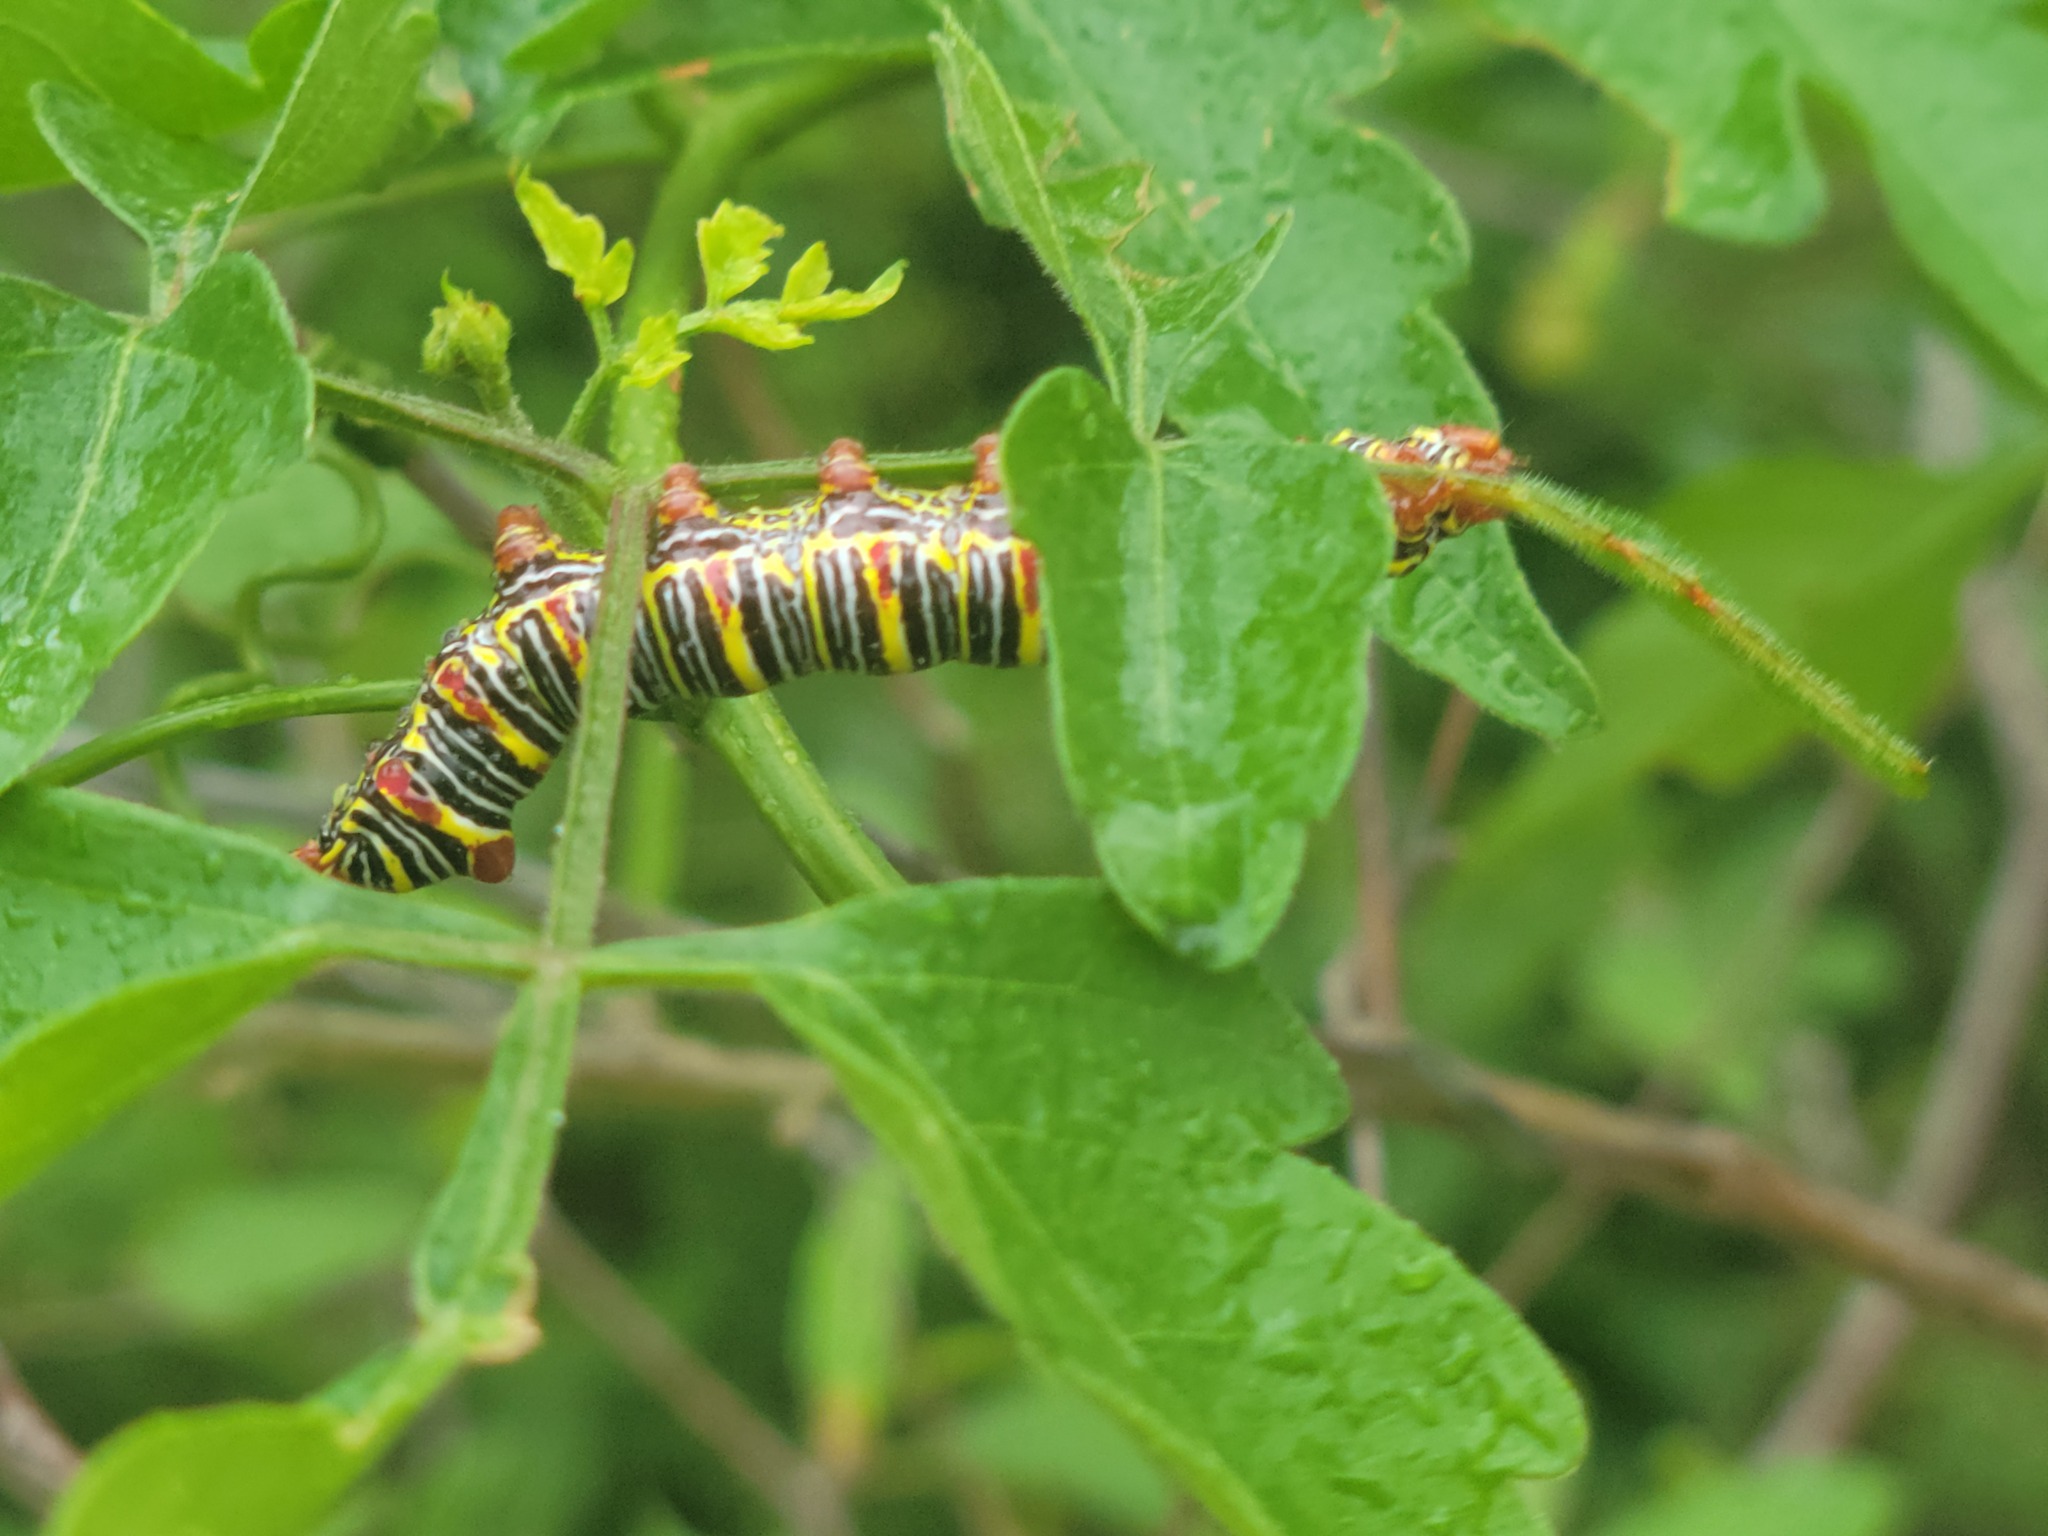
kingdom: Animalia
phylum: Arthropoda
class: Insecta
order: Lepidoptera
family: Notodontidae
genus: Didugua
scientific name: Didugua argentilinea
